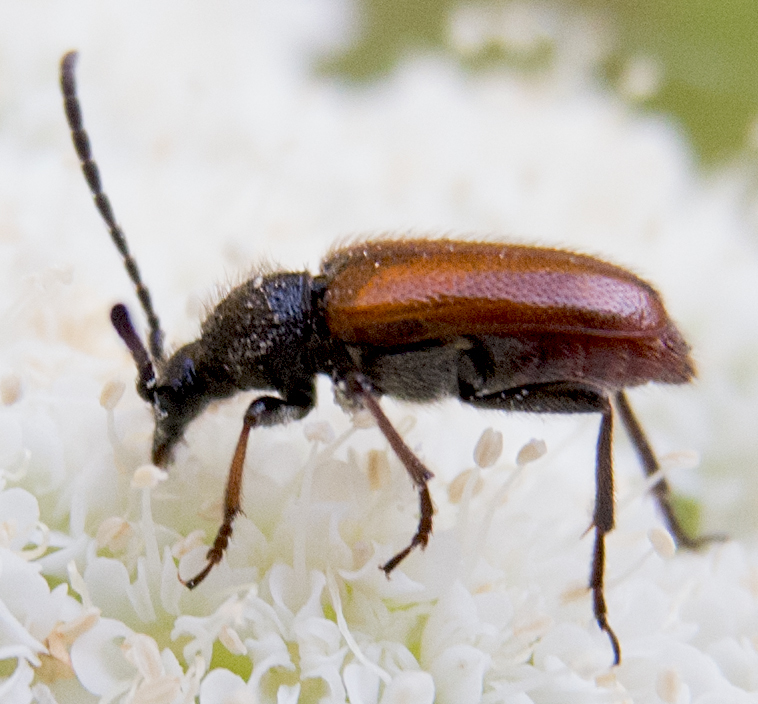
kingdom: Animalia
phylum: Arthropoda
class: Insecta
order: Coleoptera
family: Cerambycidae
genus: Pseudovadonia
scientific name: Pseudovadonia livida
